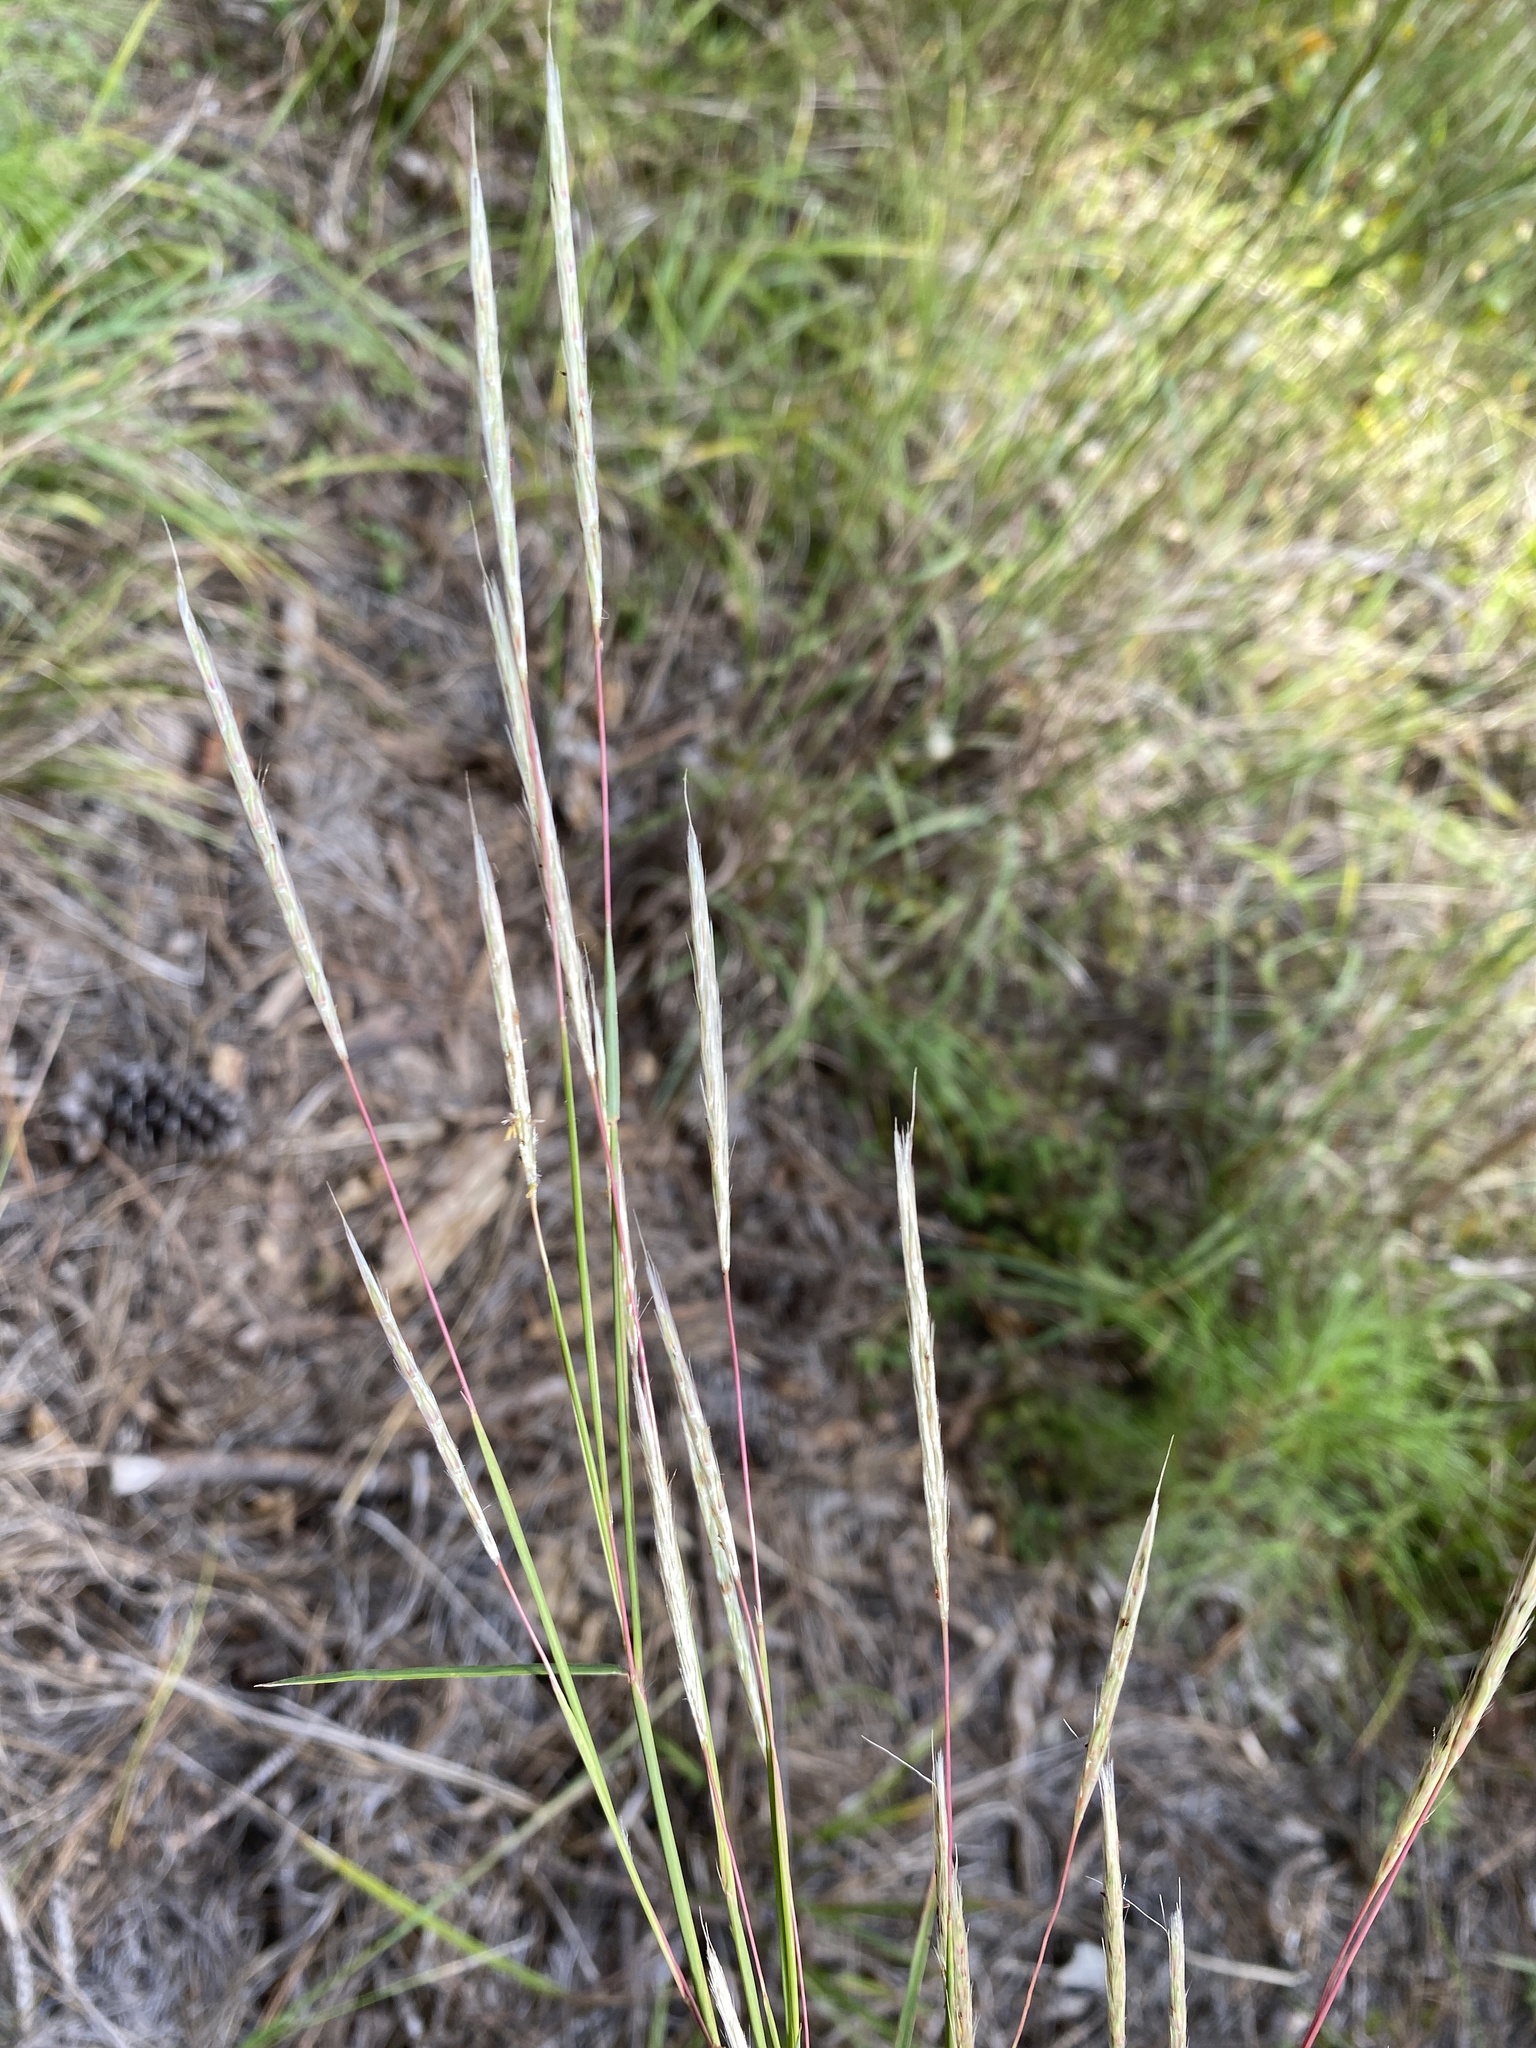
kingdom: Plantae
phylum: Tracheophyta
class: Liliopsida
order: Poales
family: Poaceae
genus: Andropogon
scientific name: Andropogon ternarius
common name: Split bluestem
